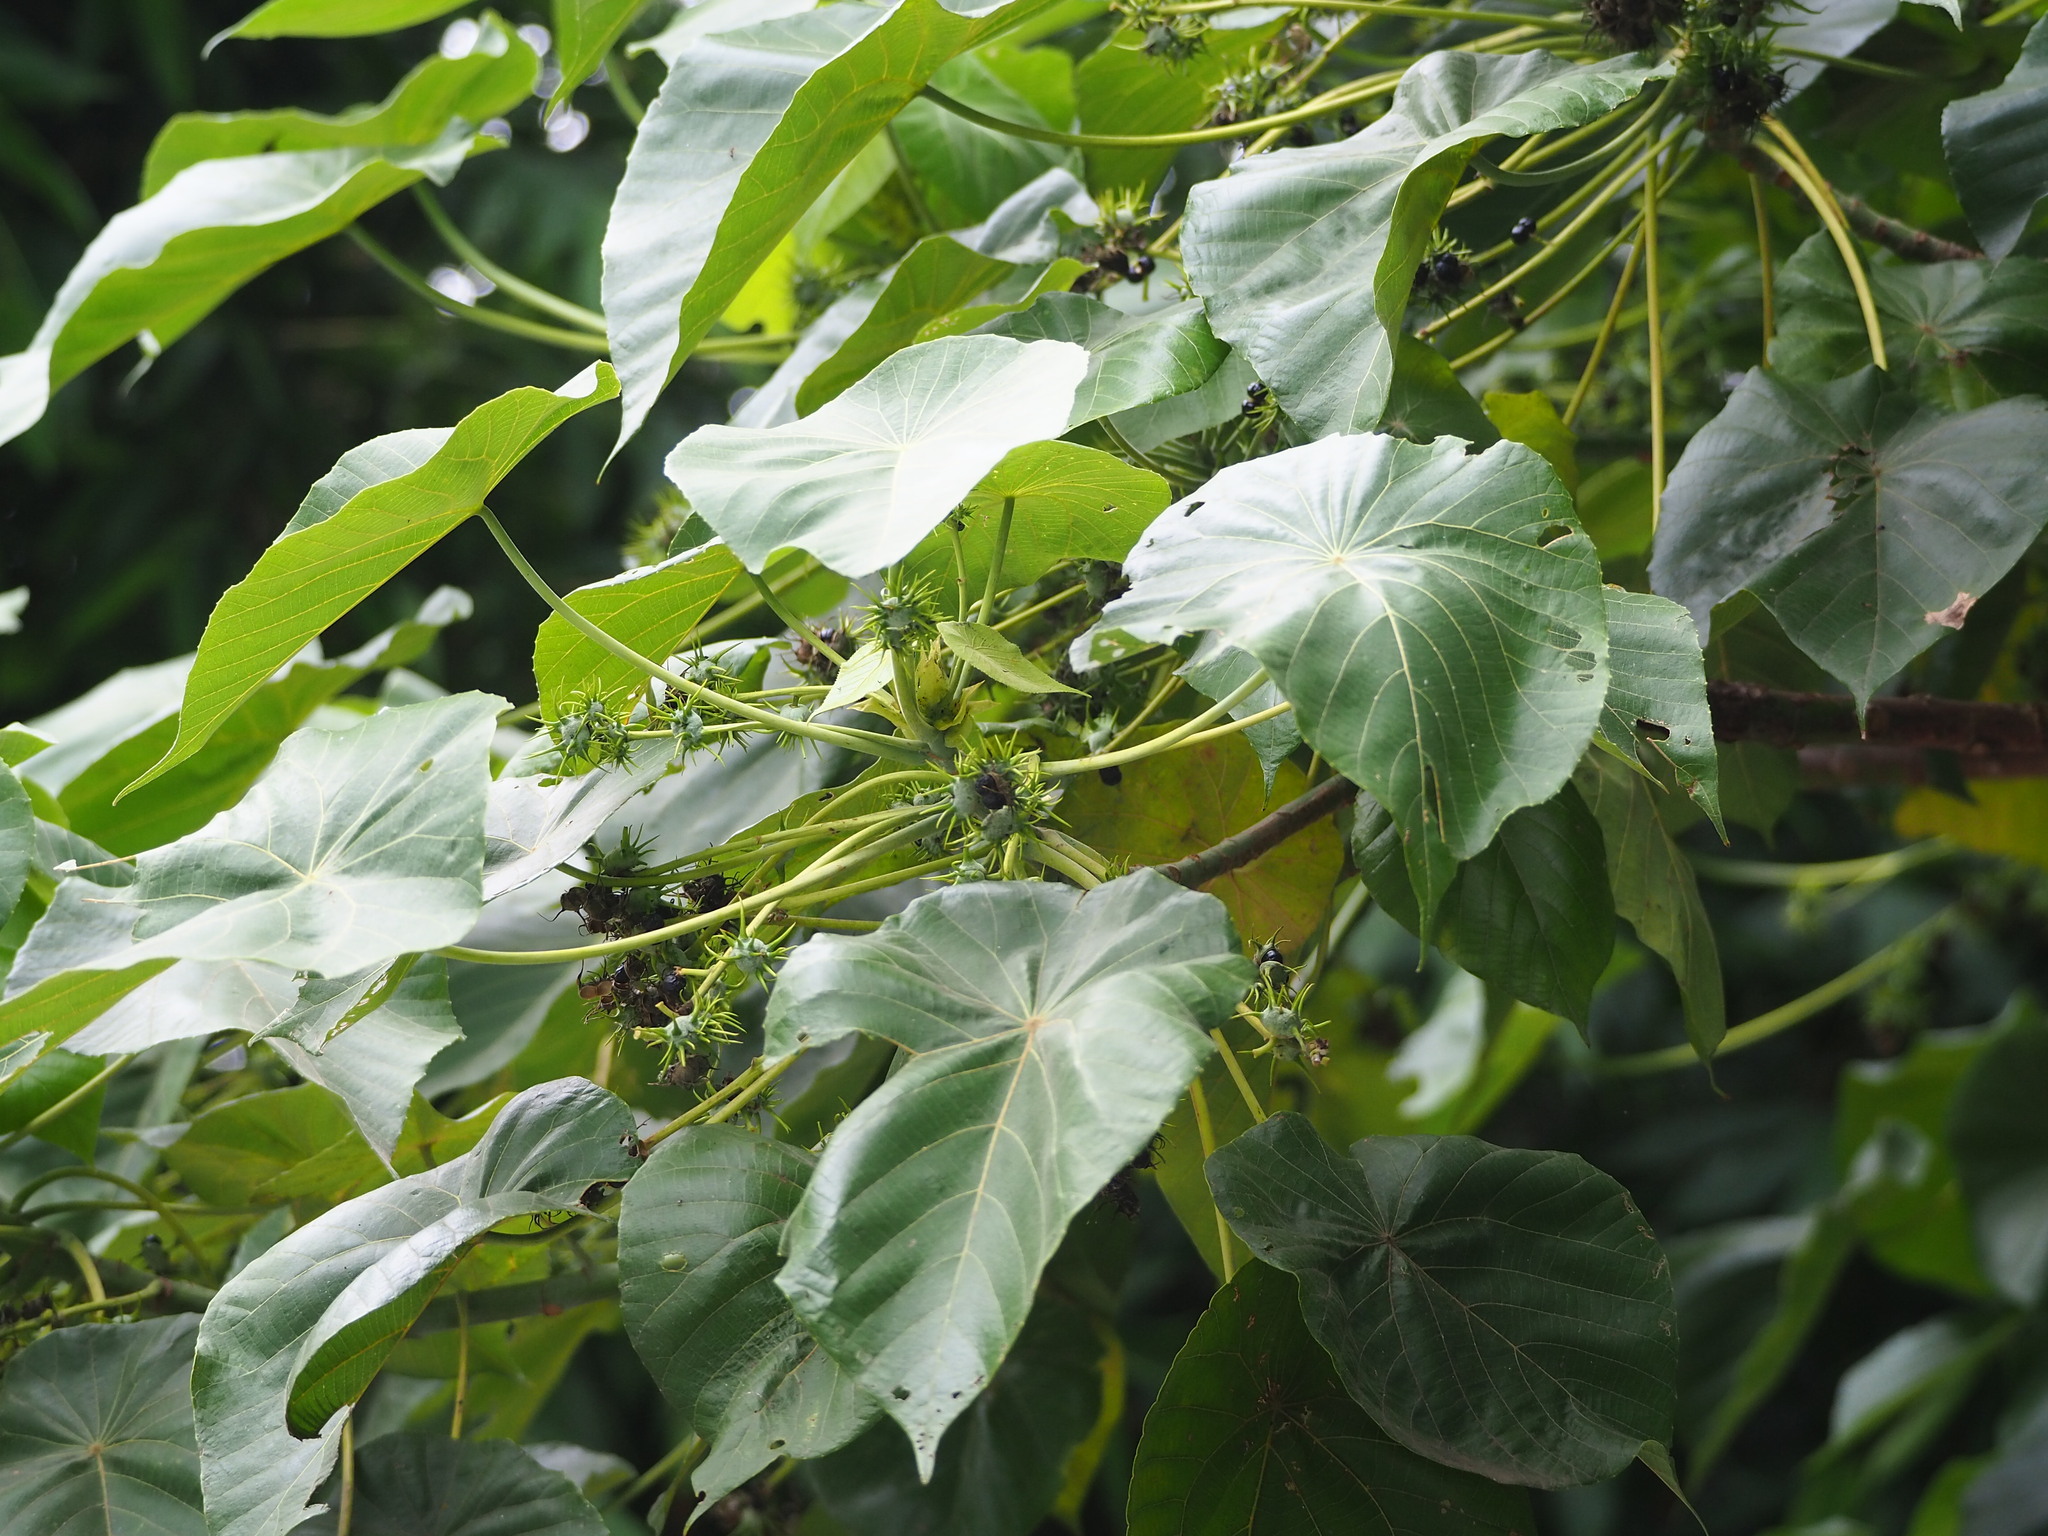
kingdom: Plantae
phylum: Tracheophyta
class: Magnoliopsida
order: Malpighiales
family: Euphorbiaceae
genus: Macaranga
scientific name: Macaranga tanarius
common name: Parasol leaf tree
